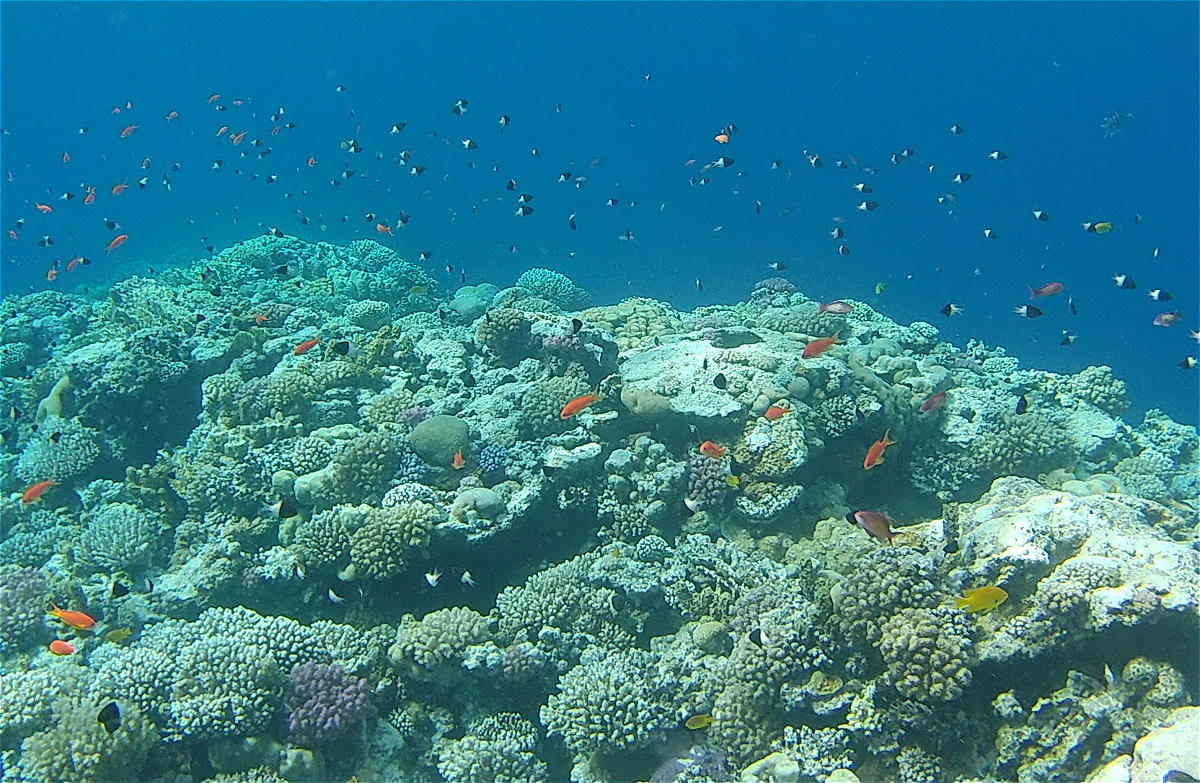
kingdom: Animalia
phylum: Chordata
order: Perciformes
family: Pomacentridae
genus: Chromis
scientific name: Chromis dimidiata
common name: Half-and-half chromis
